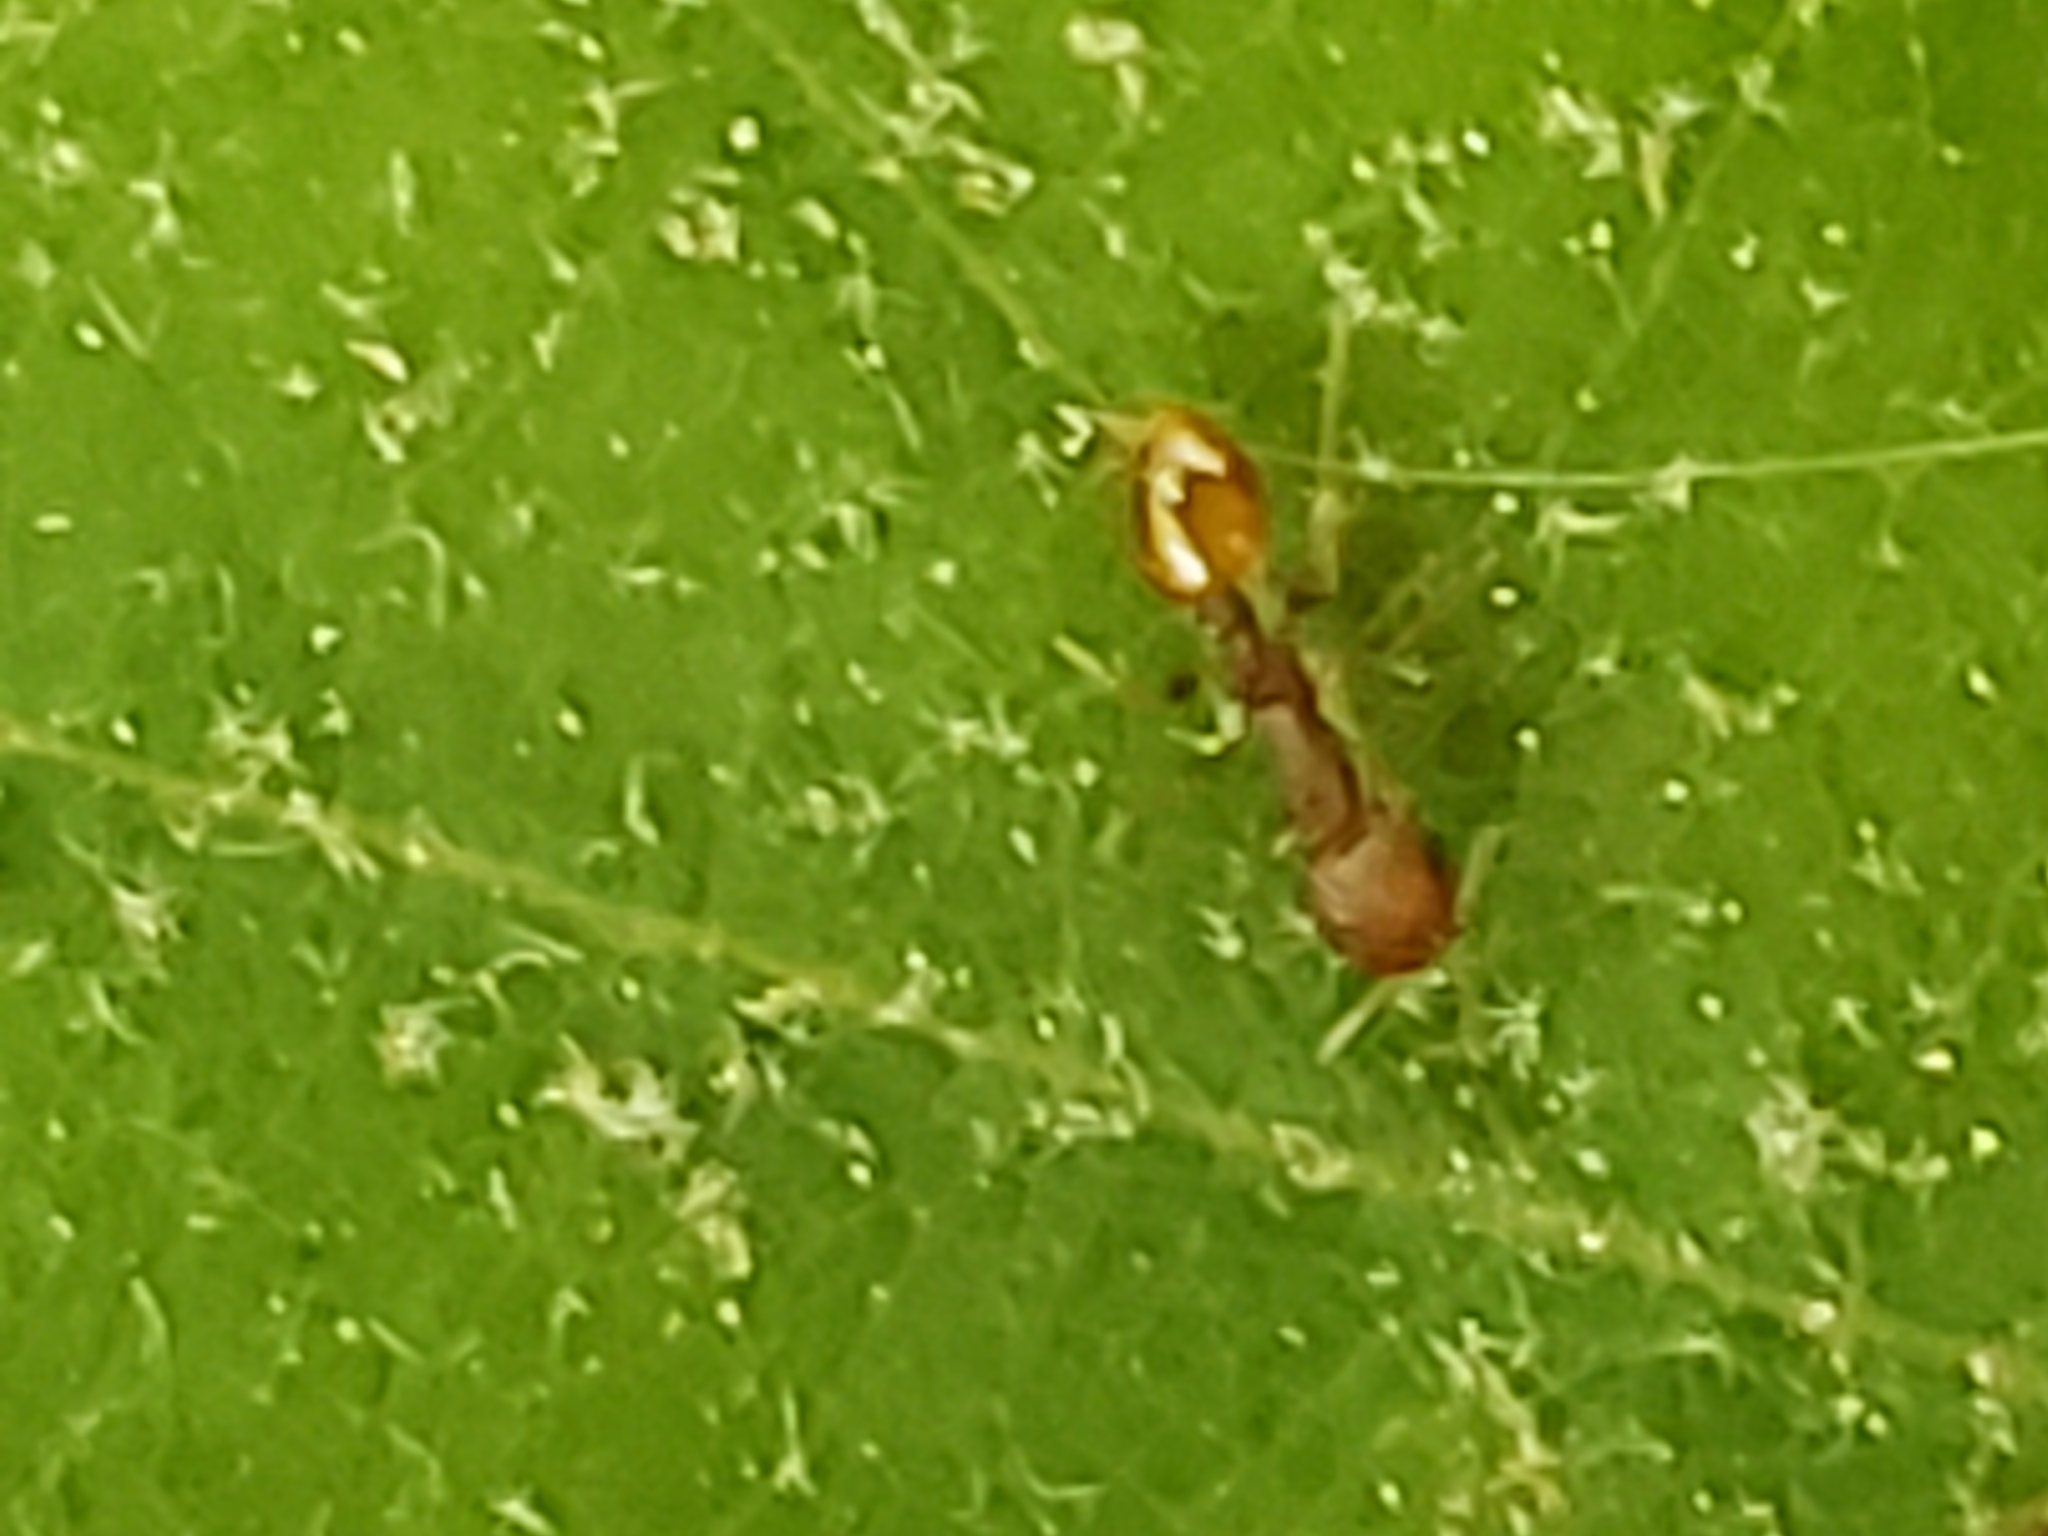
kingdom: Animalia
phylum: Arthropoda
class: Insecta
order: Hymenoptera
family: Formicidae
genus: Temnothorax
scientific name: Temnothorax curvispinosus
